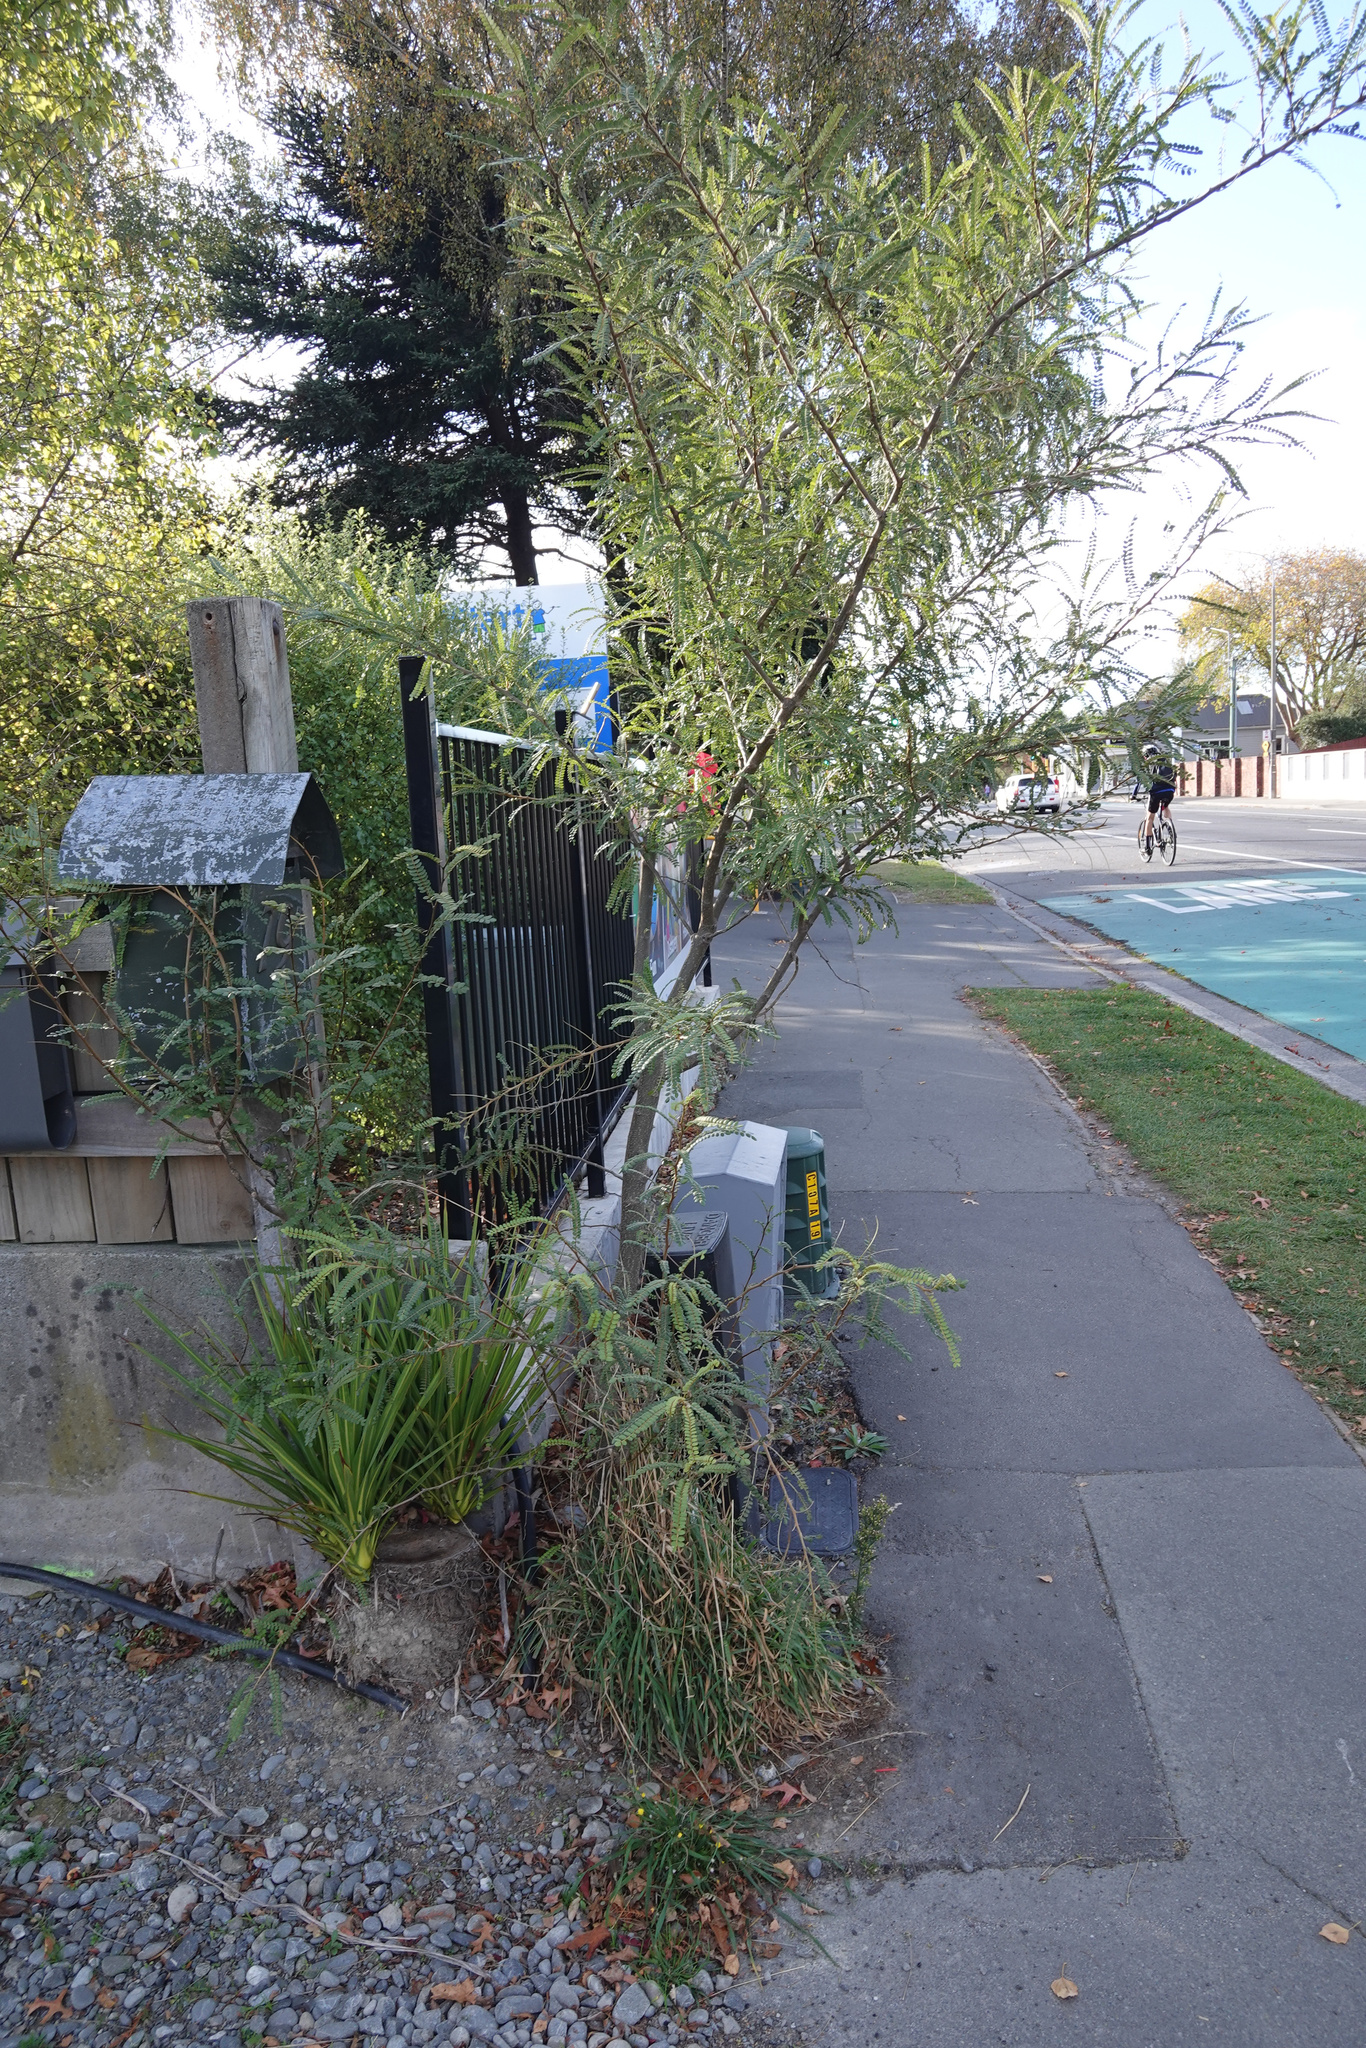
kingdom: Plantae
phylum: Tracheophyta
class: Magnoliopsida
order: Fabales
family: Fabaceae
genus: Sophora
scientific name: Sophora microphylla
